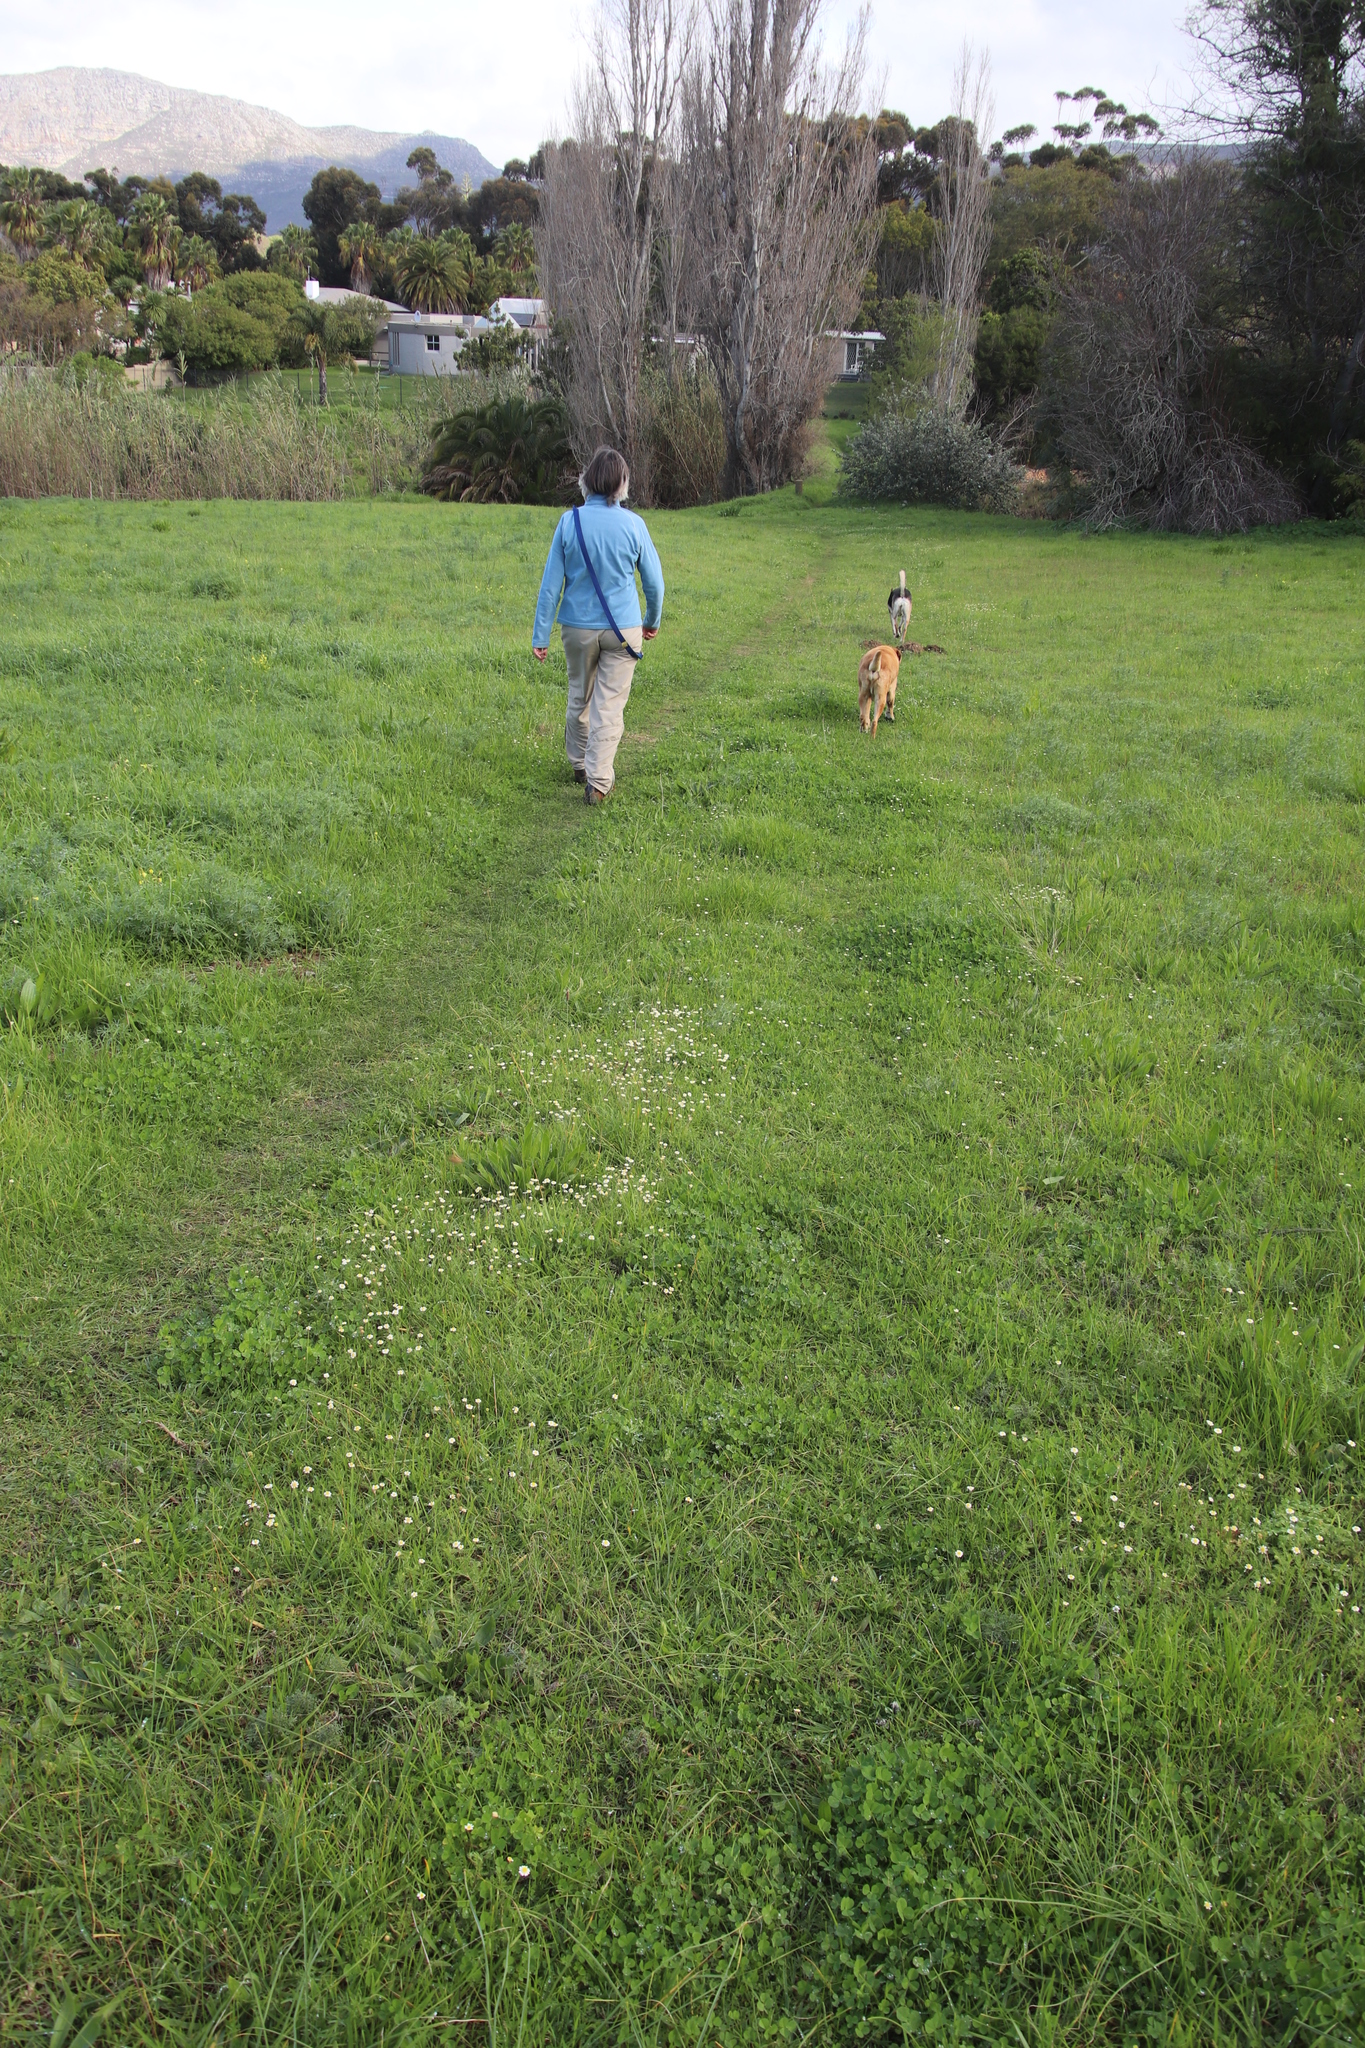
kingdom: Plantae
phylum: Tracheophyta
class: Magnoliopsida
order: Asterales
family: Asteraceae
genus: Cotula
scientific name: Cotula turbinata
